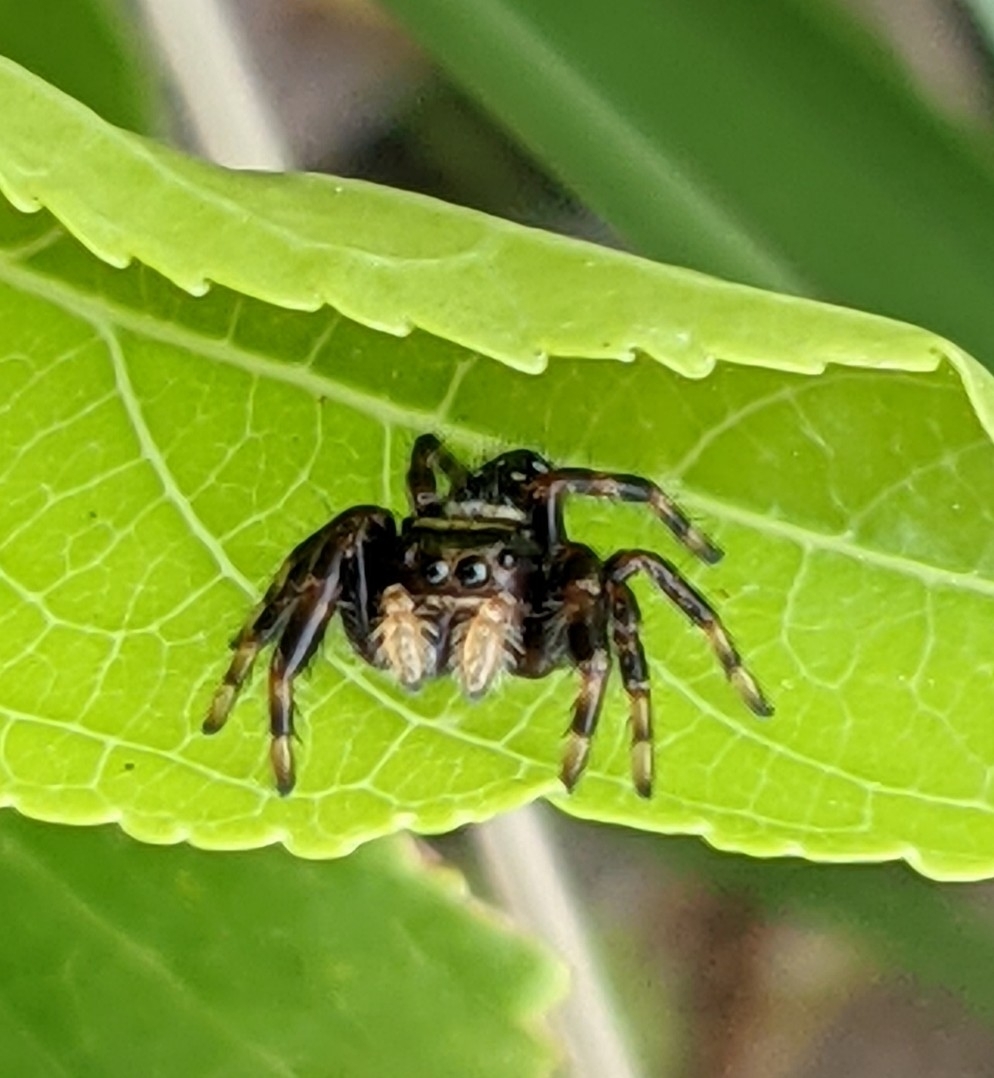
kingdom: Animalia
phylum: Arthropoda
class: Arachnida
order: Araneae
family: Salticidae
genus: Phidippus
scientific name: Phidippus clarus
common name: Brilliant jumping spider
